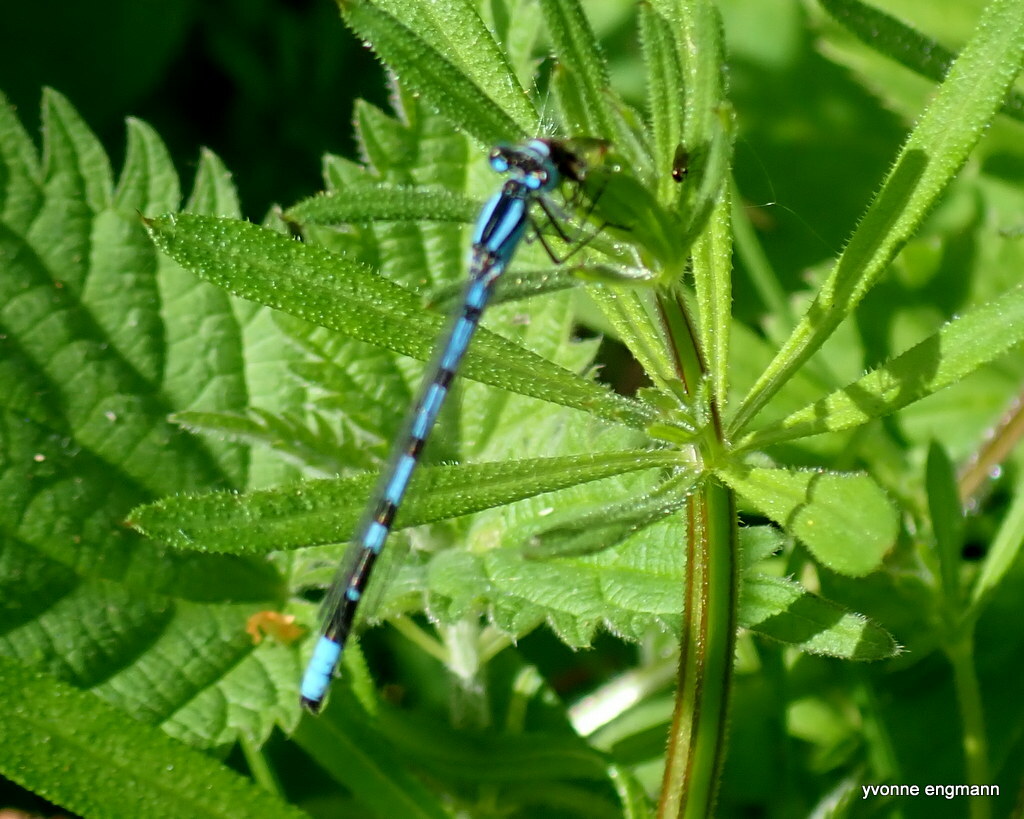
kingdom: Animalia
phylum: Arthropoda
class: Insecta
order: Odonata
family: Coenagrionidae
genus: Enallagma
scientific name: Enallagma cyathigerum
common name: Common blue damselfly
